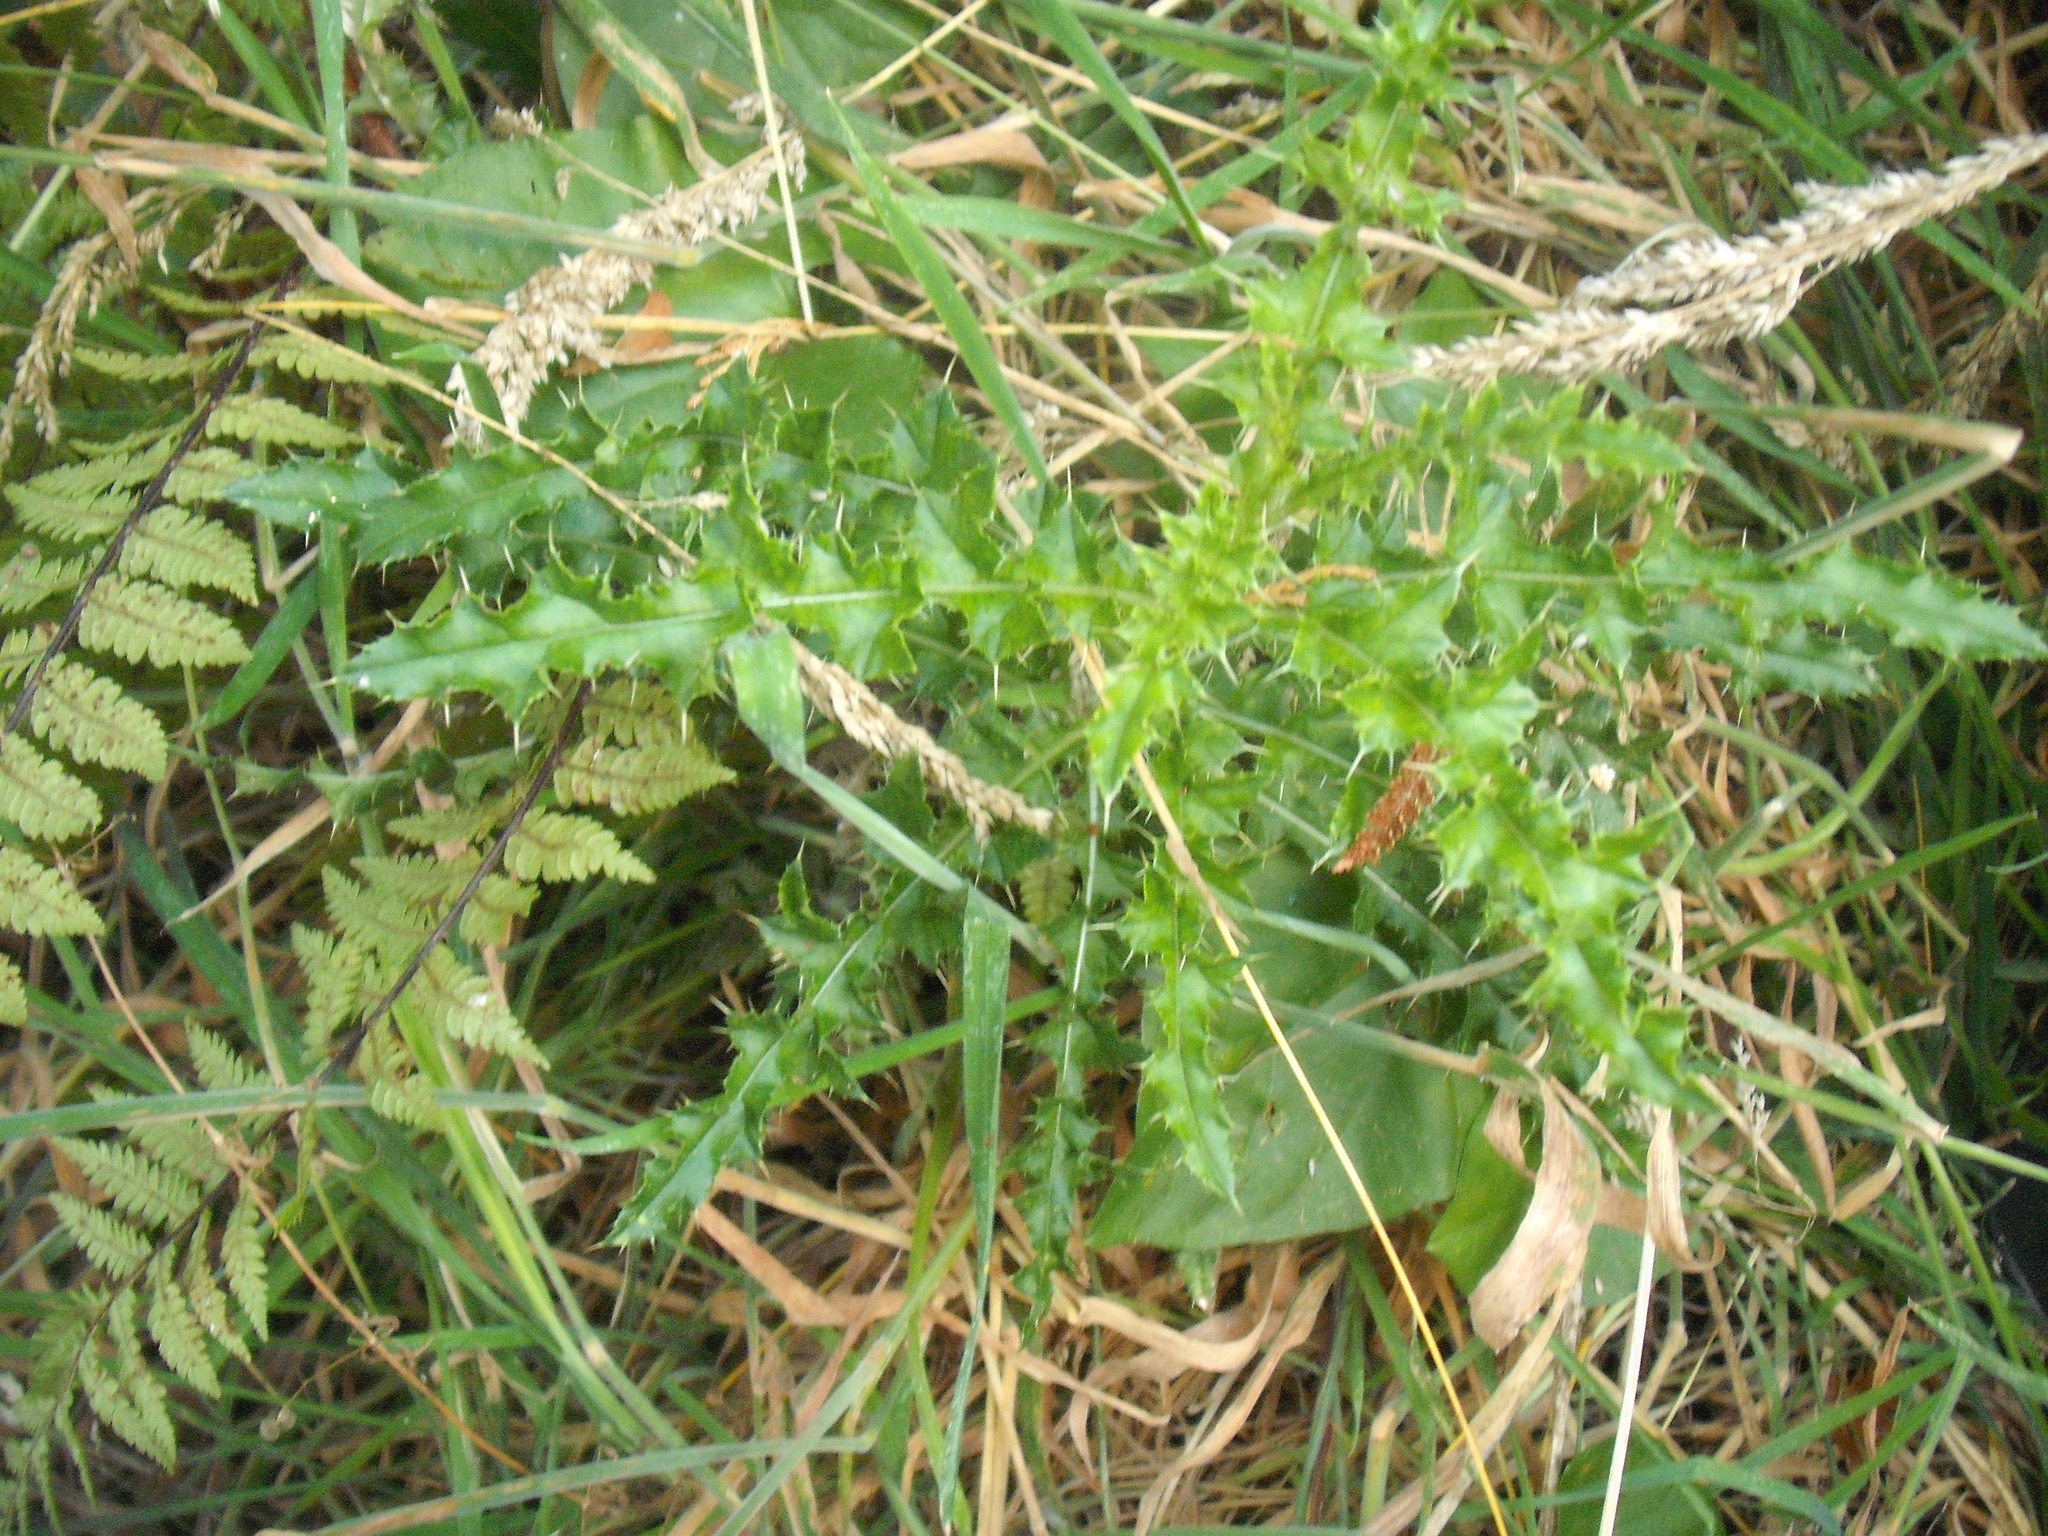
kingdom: Plantae
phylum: Tracheophyta
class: Magnoliopsida
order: Asterales
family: Asteraceae
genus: Cirsium
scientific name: Cirsium arvense
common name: Creeping thistle
